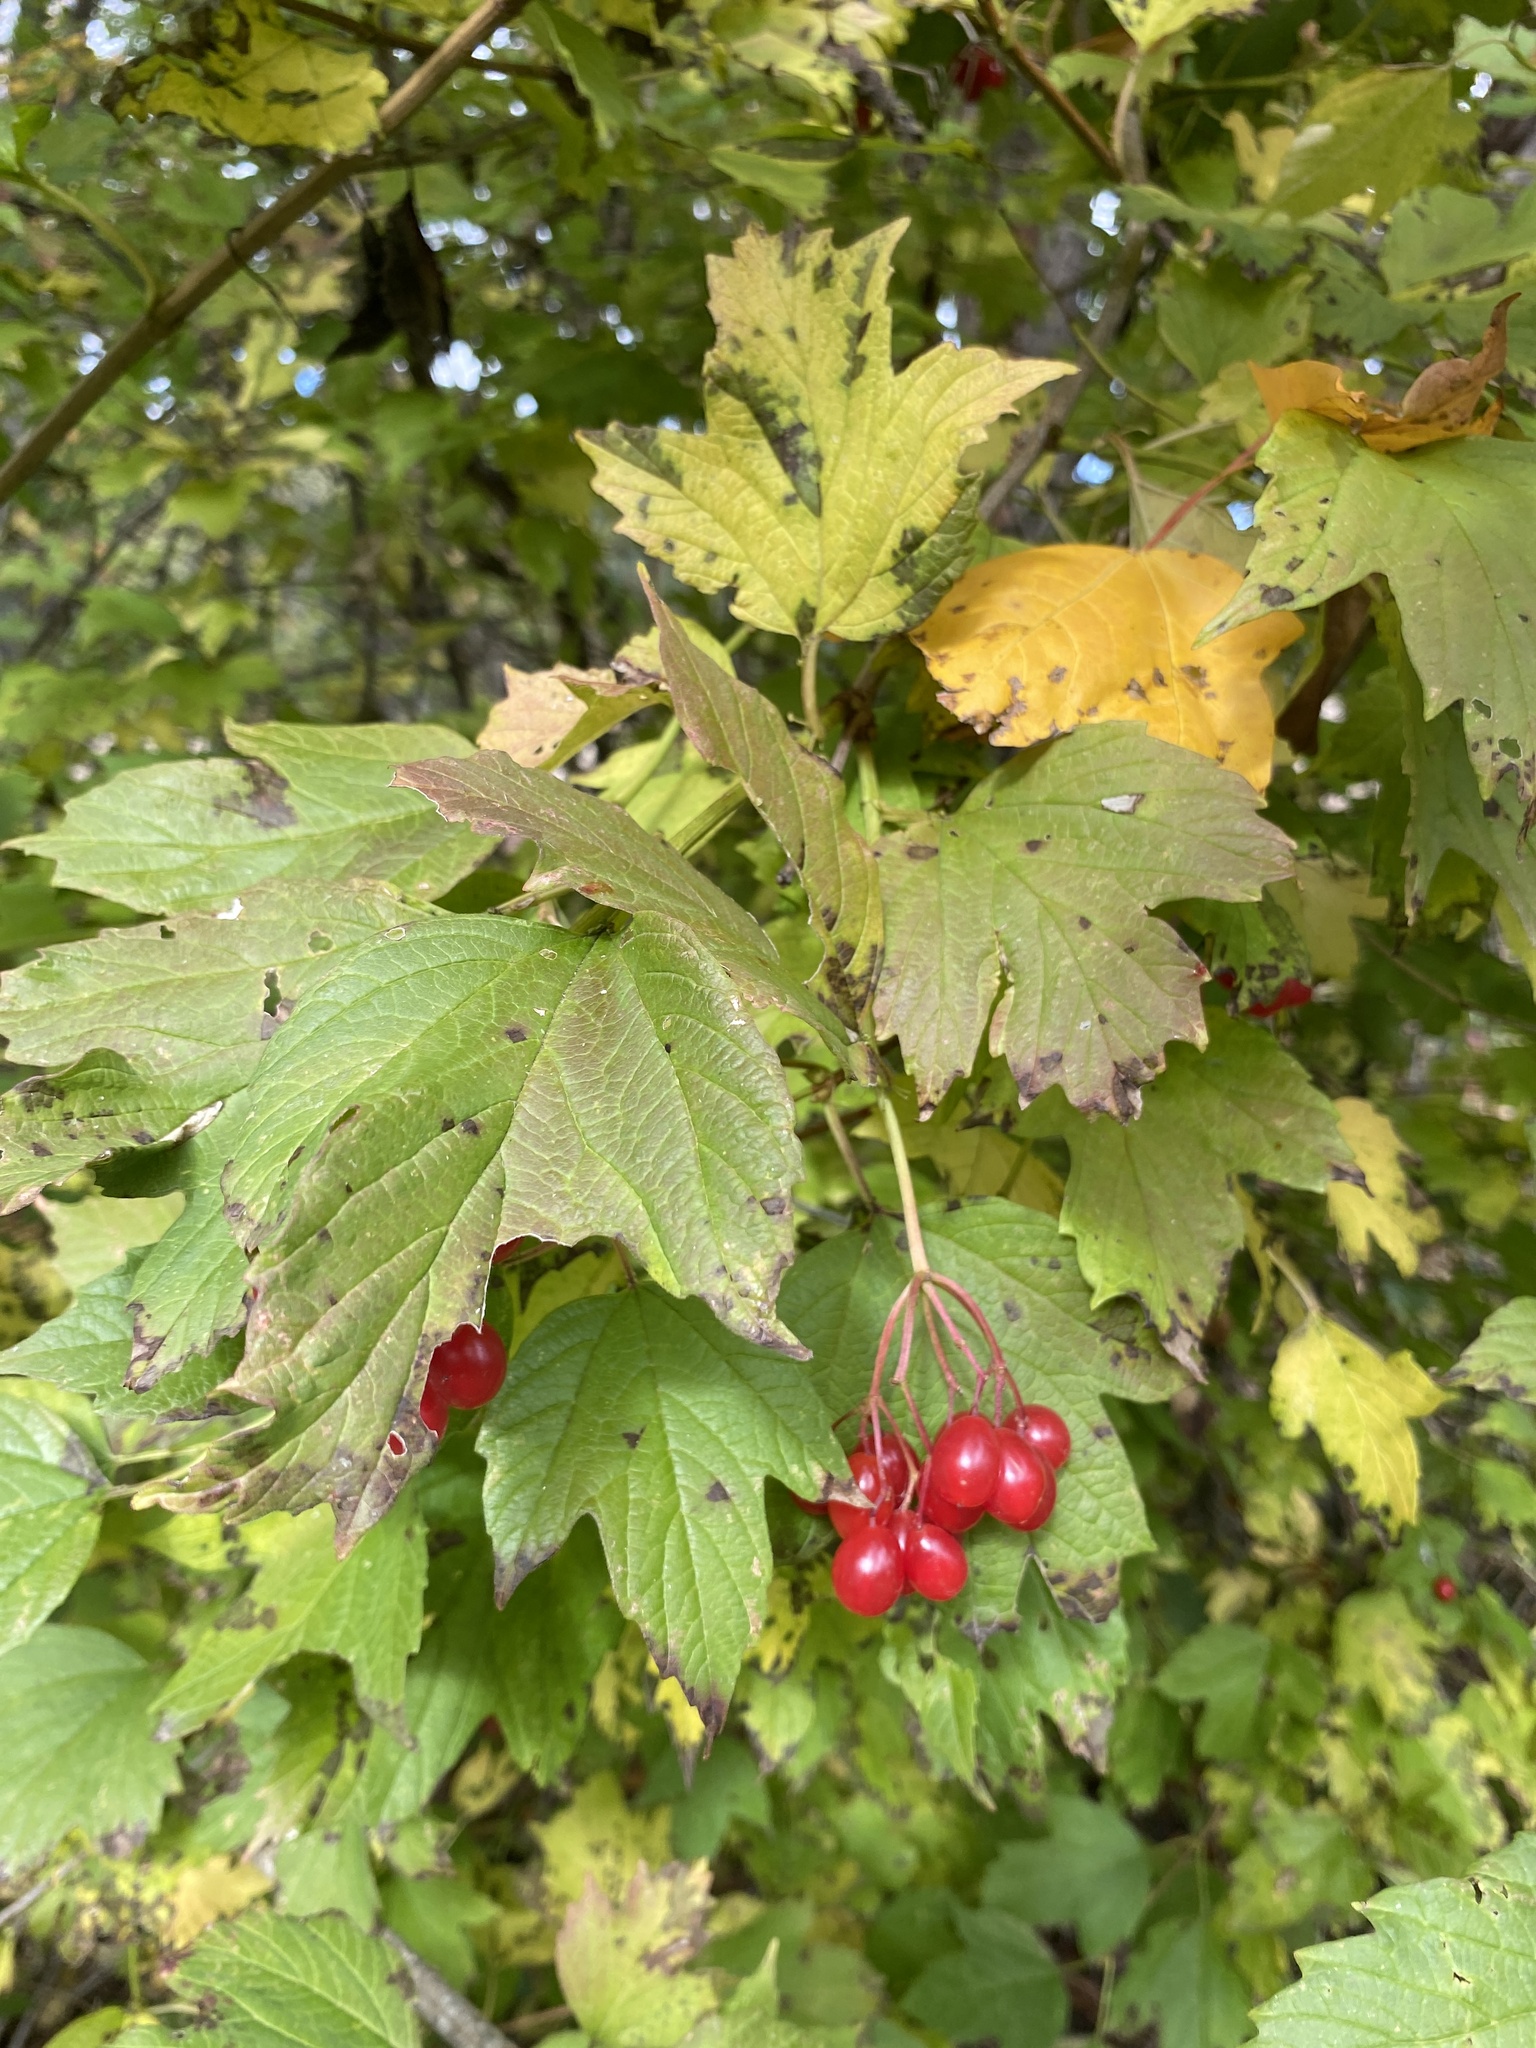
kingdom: Plantae
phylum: Tracheophyta
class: Magnoliopsida
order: Dipsacales
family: Viburnaceae
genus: Viburnum
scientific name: Viburnum opulus
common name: Guelder-rose
